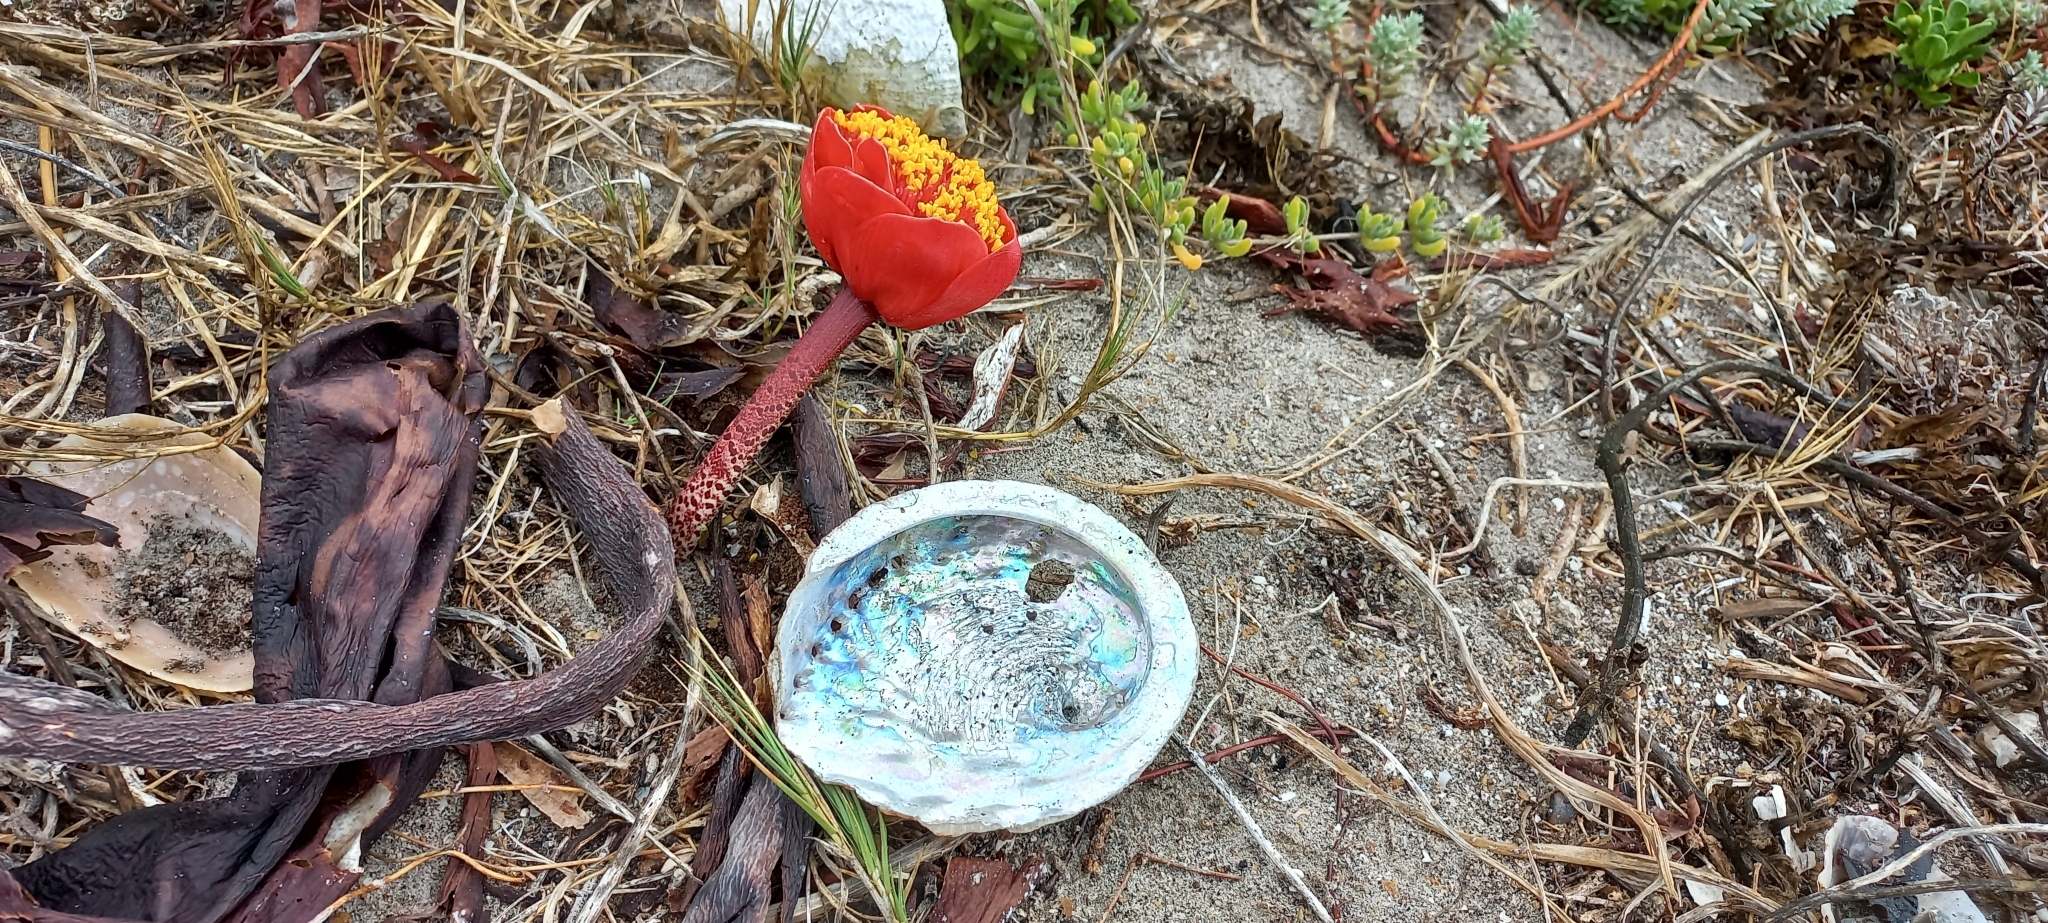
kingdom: Plantae
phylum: Tracheophyta
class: Liliopsida
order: Asparagales
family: Amaryllidaceae
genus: Haemanthus
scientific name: Haemanthus coccineus
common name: Cape-tulip
